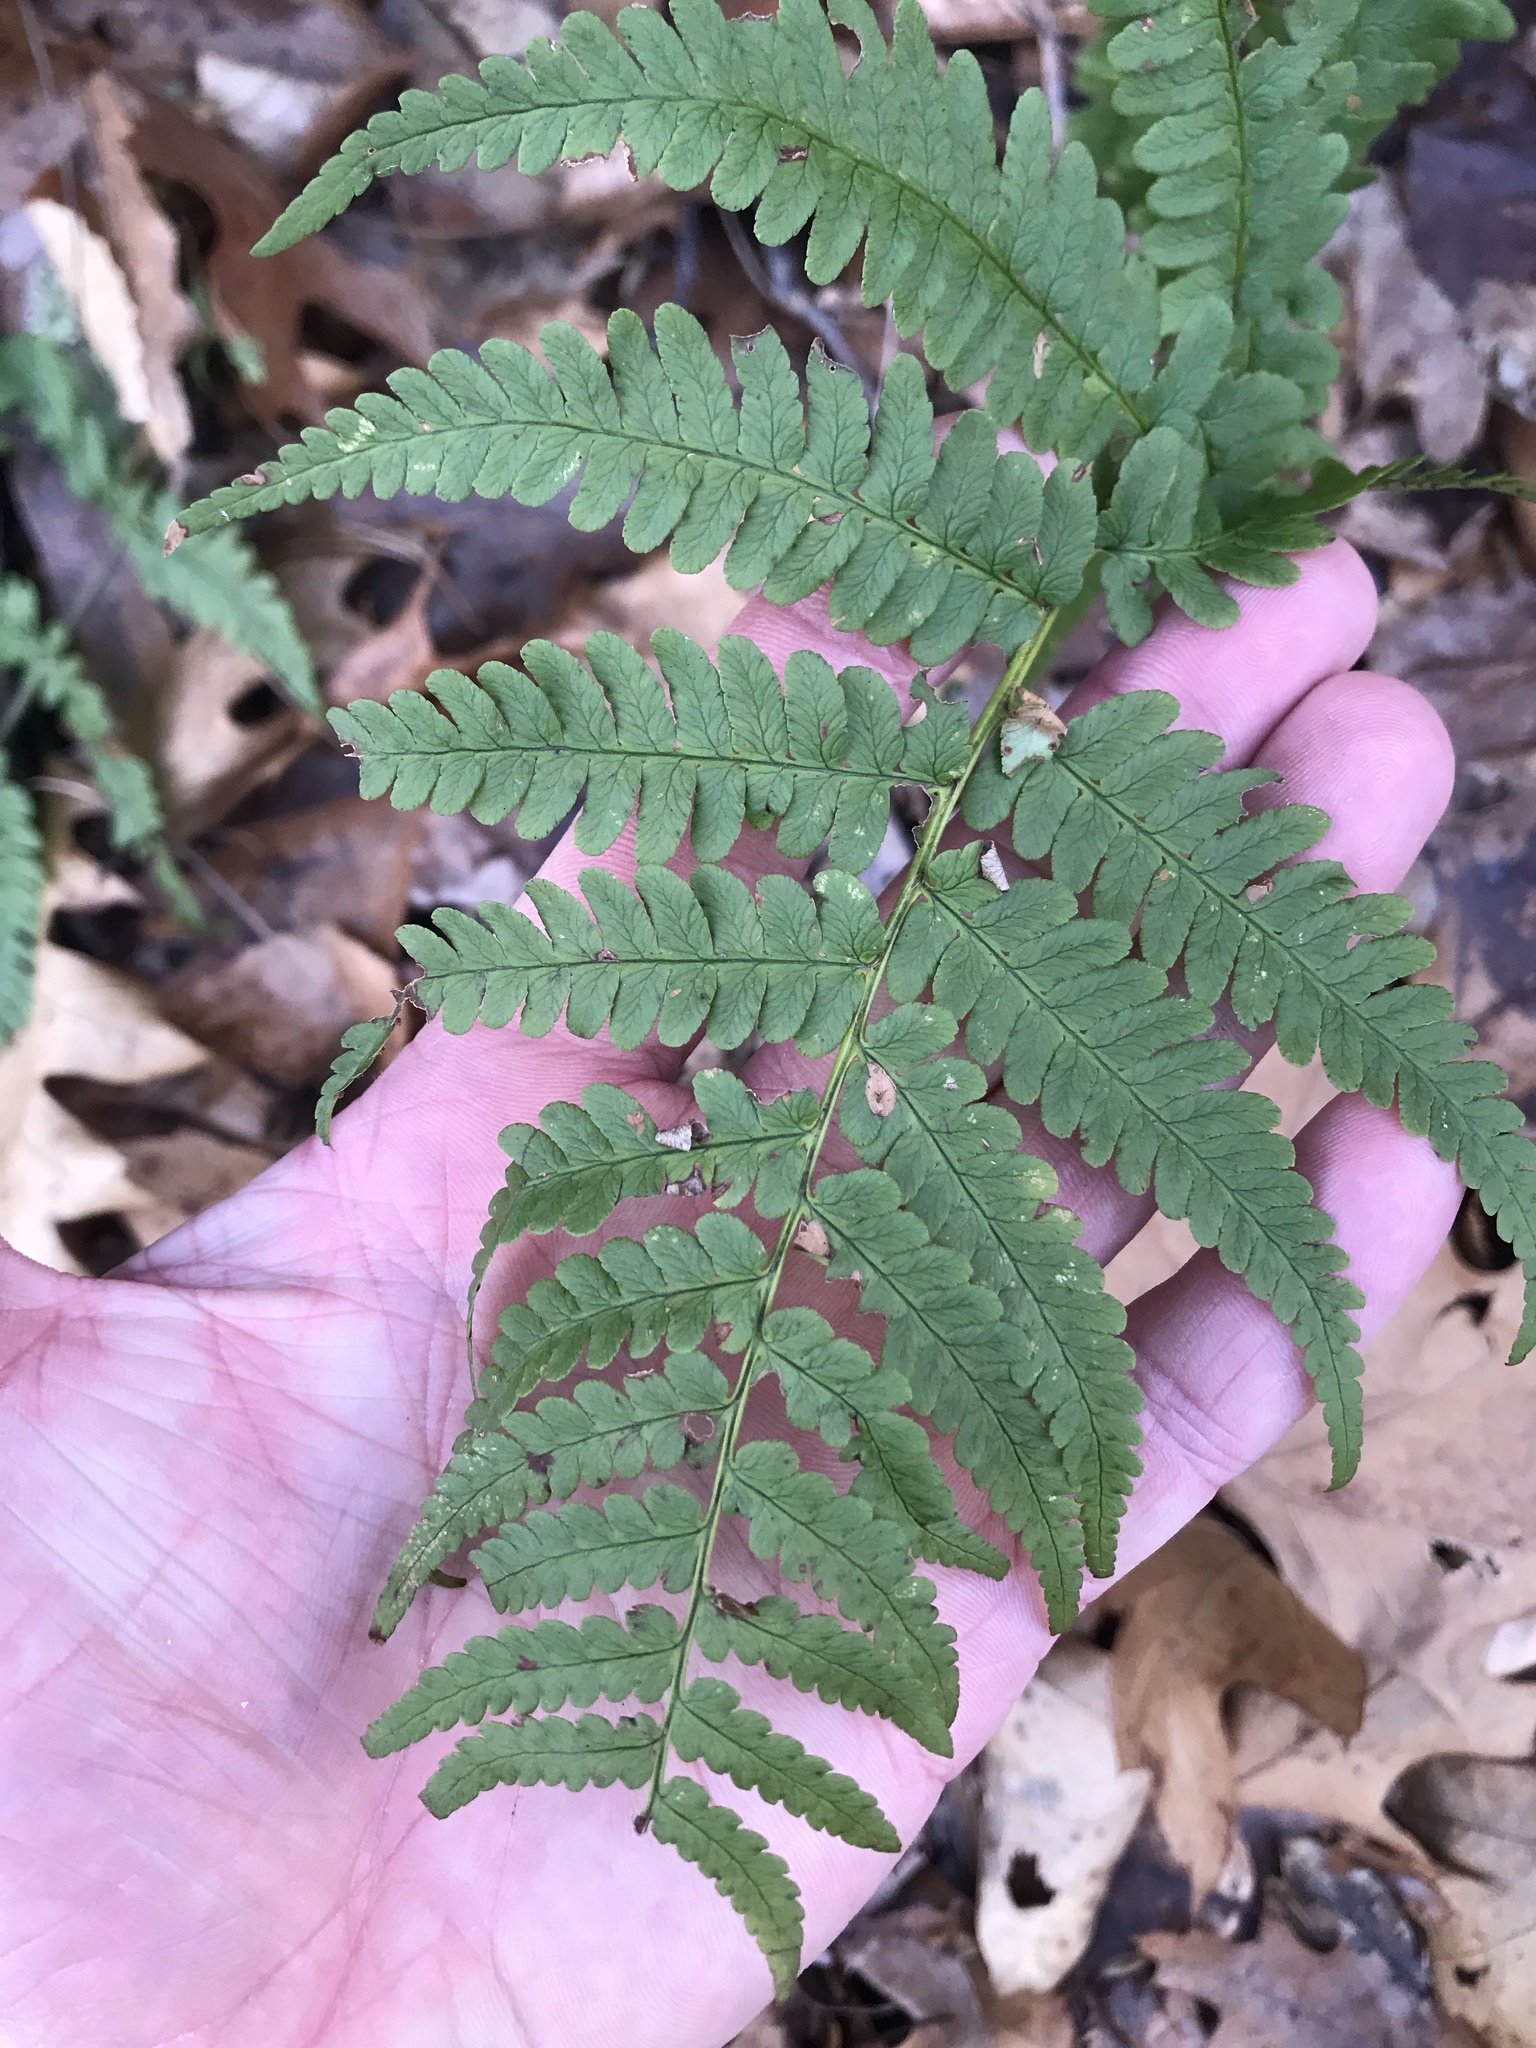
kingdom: Plantae
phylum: Tracheophyta
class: Polypodiopsida
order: Polypodiales
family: Dryopteridaceae
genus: Dryopteris
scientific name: Dryopteris marginalis
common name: Marginal wood fern
